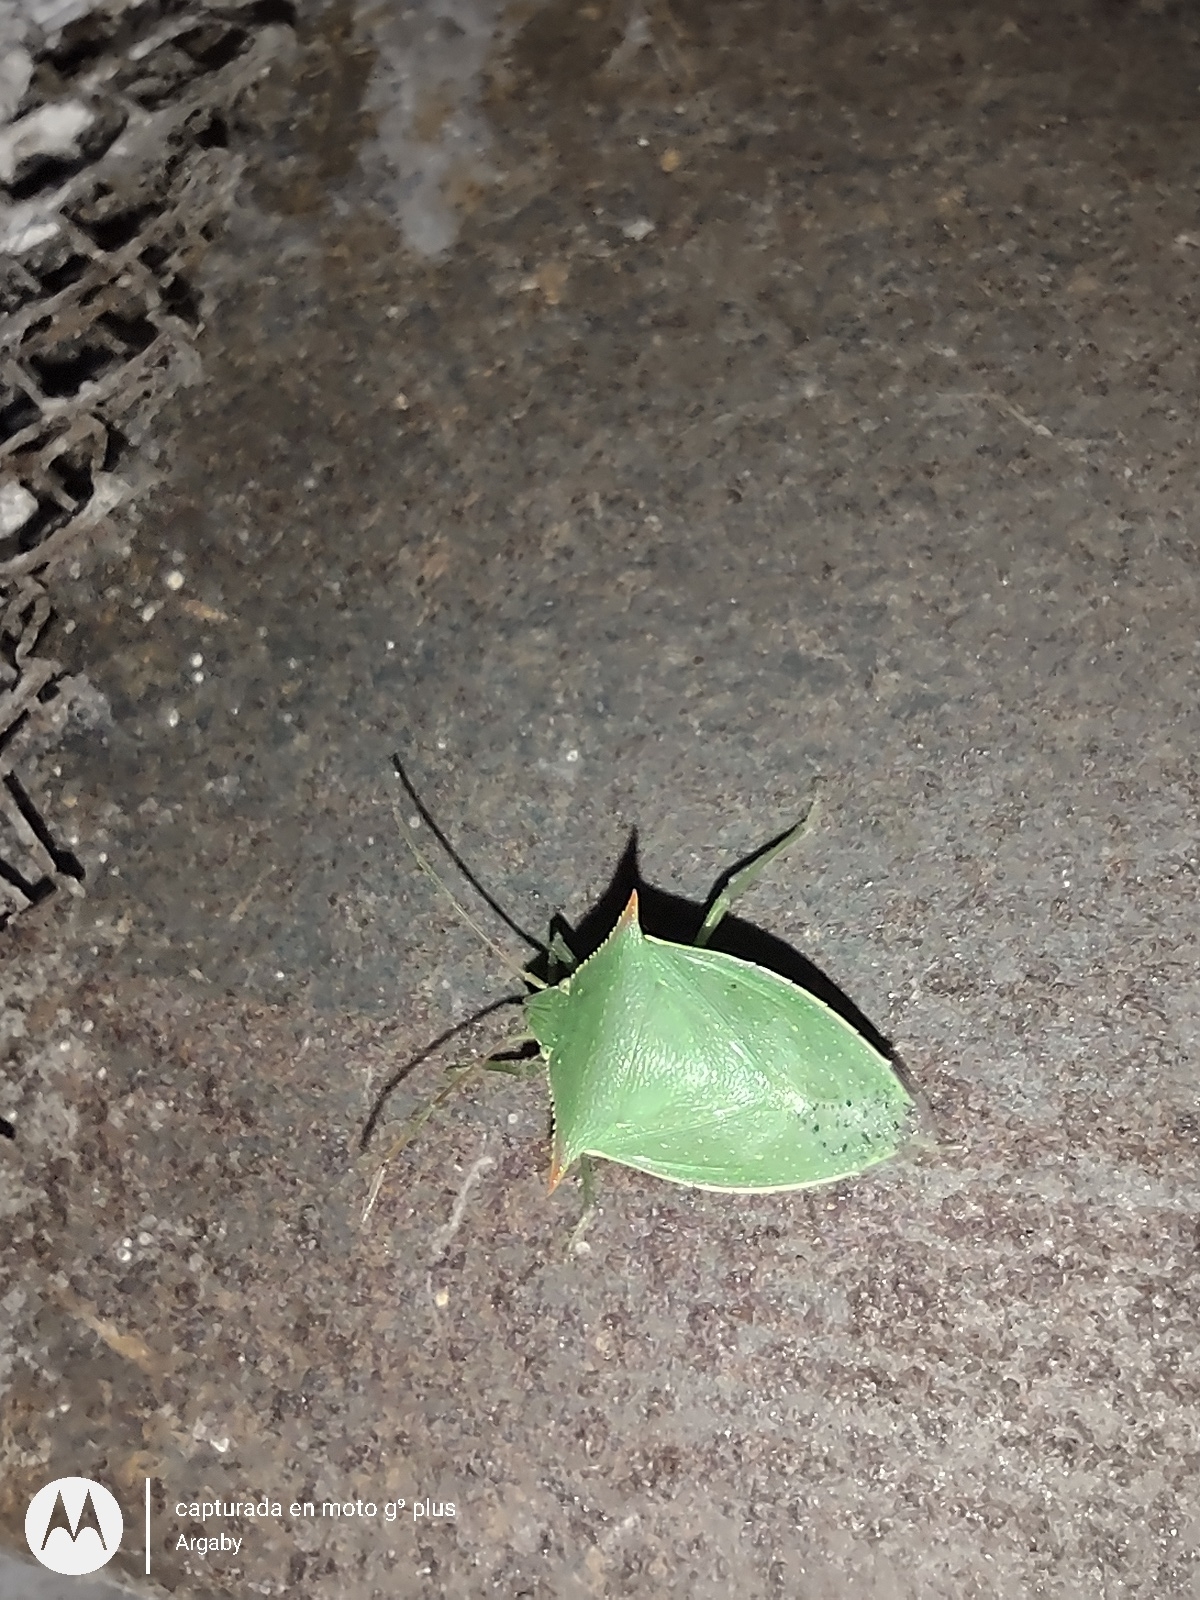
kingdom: Animalia
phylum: Arthropoda
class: Insecta
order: Hemiptera
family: Pentatomidae
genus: Loxa
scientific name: Loxa deducta
